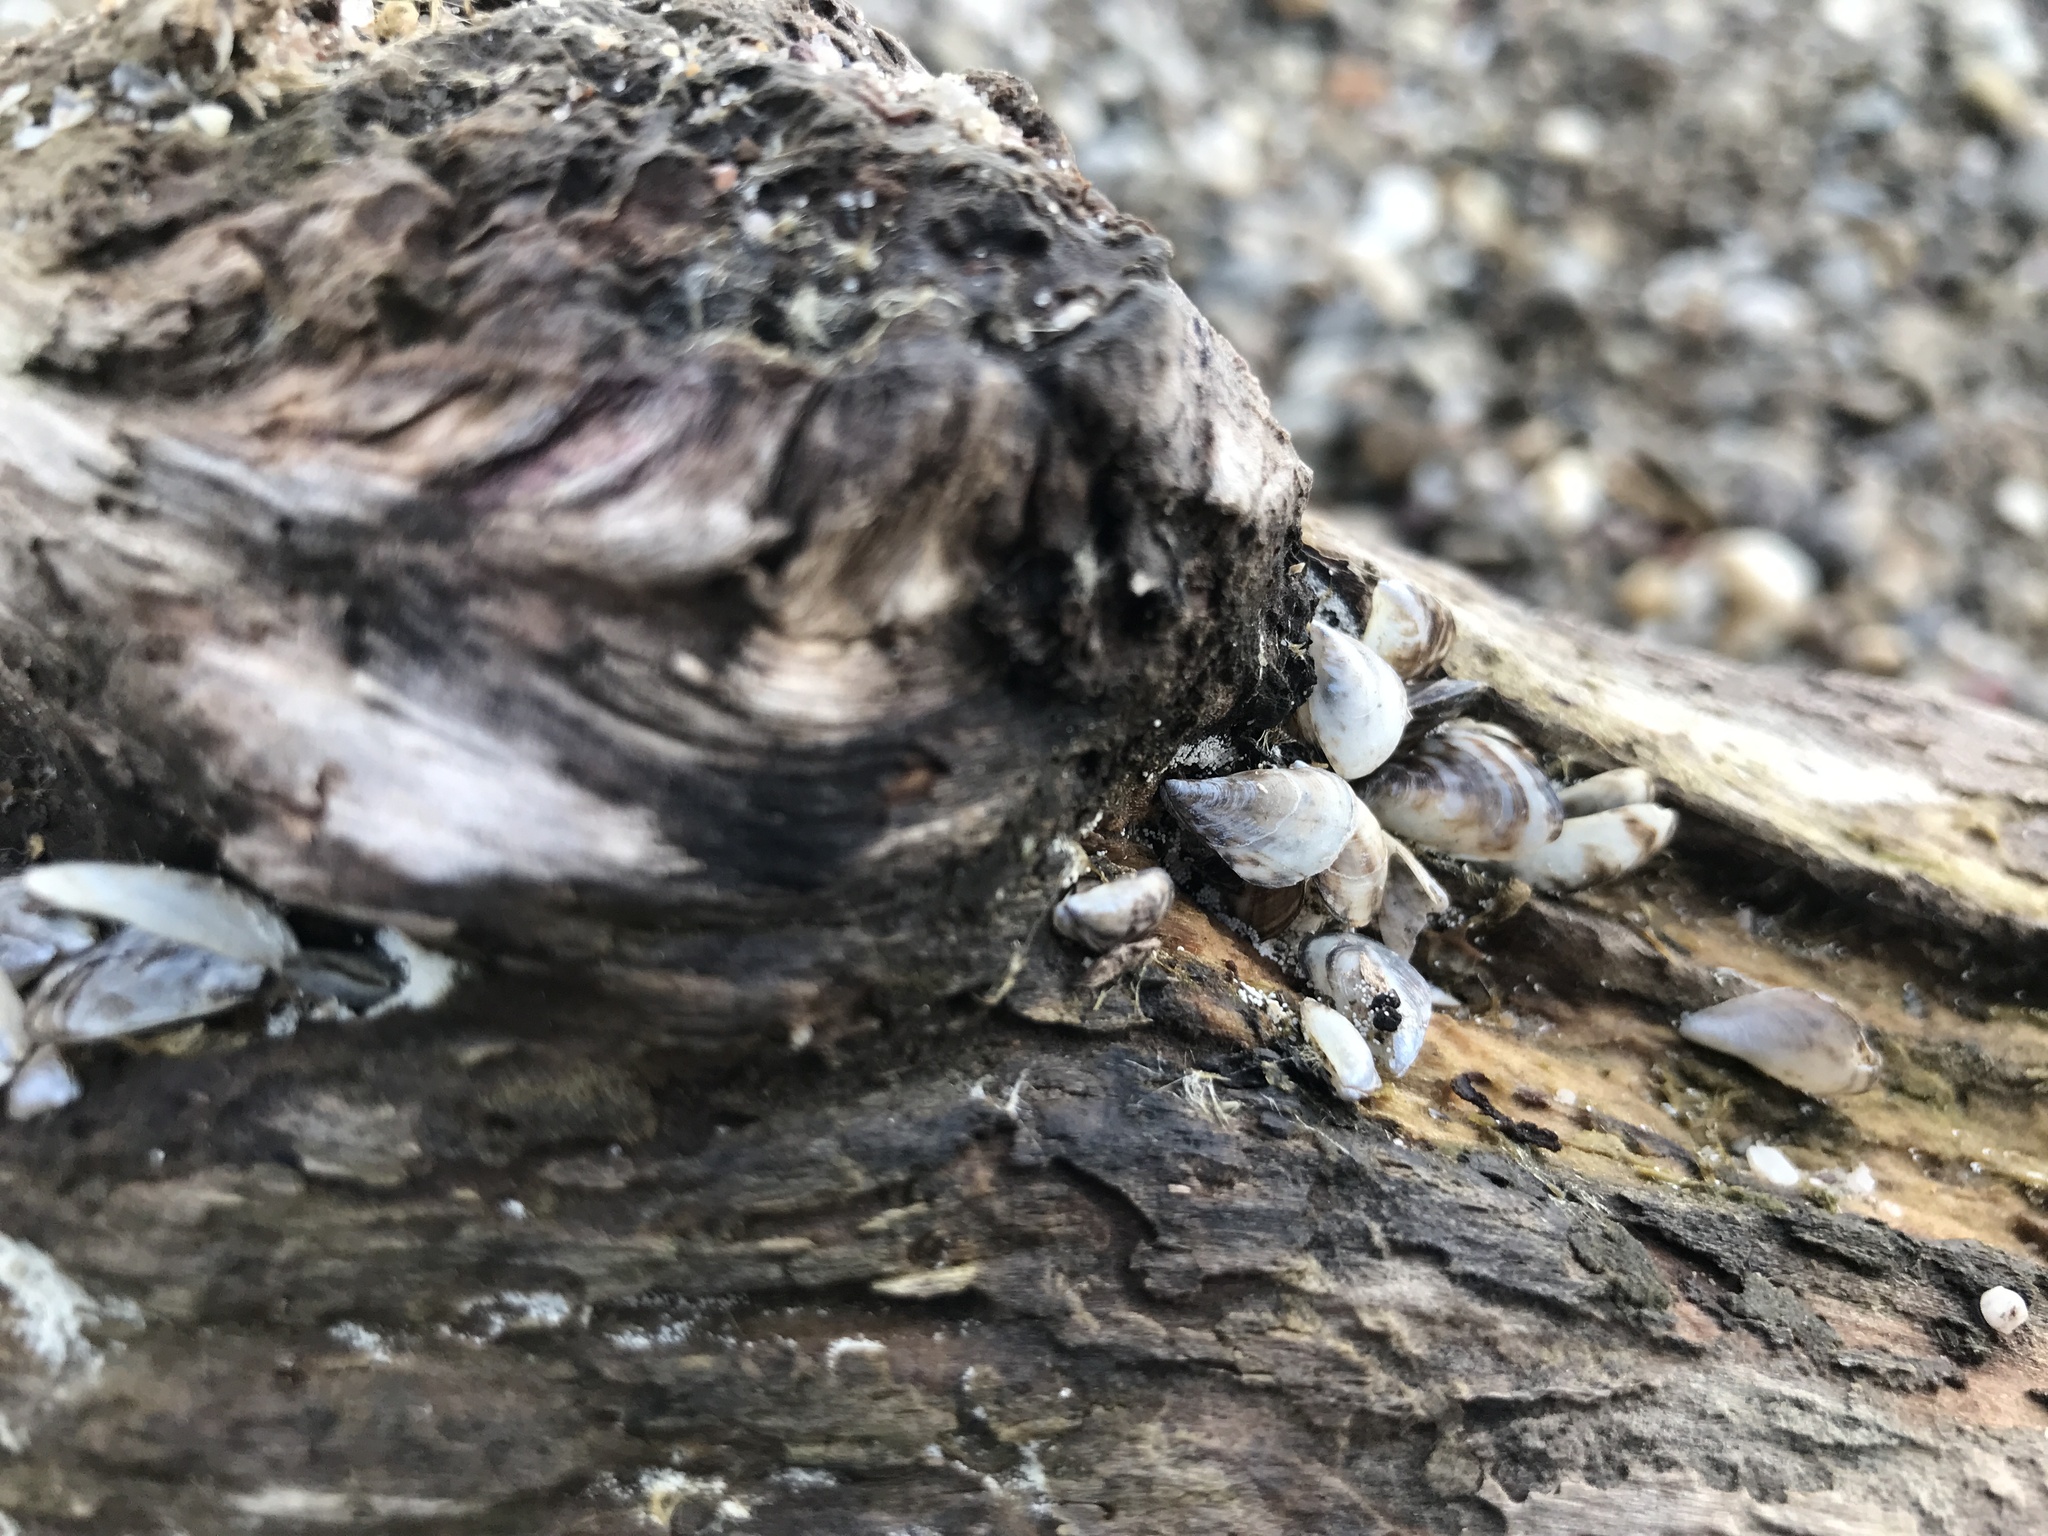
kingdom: Animalia
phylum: Mollusca
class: Bivalvia
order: Myida
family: Dreissenidae
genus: Dreissena
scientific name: Dreissena bugensis
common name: Quagga mussel
